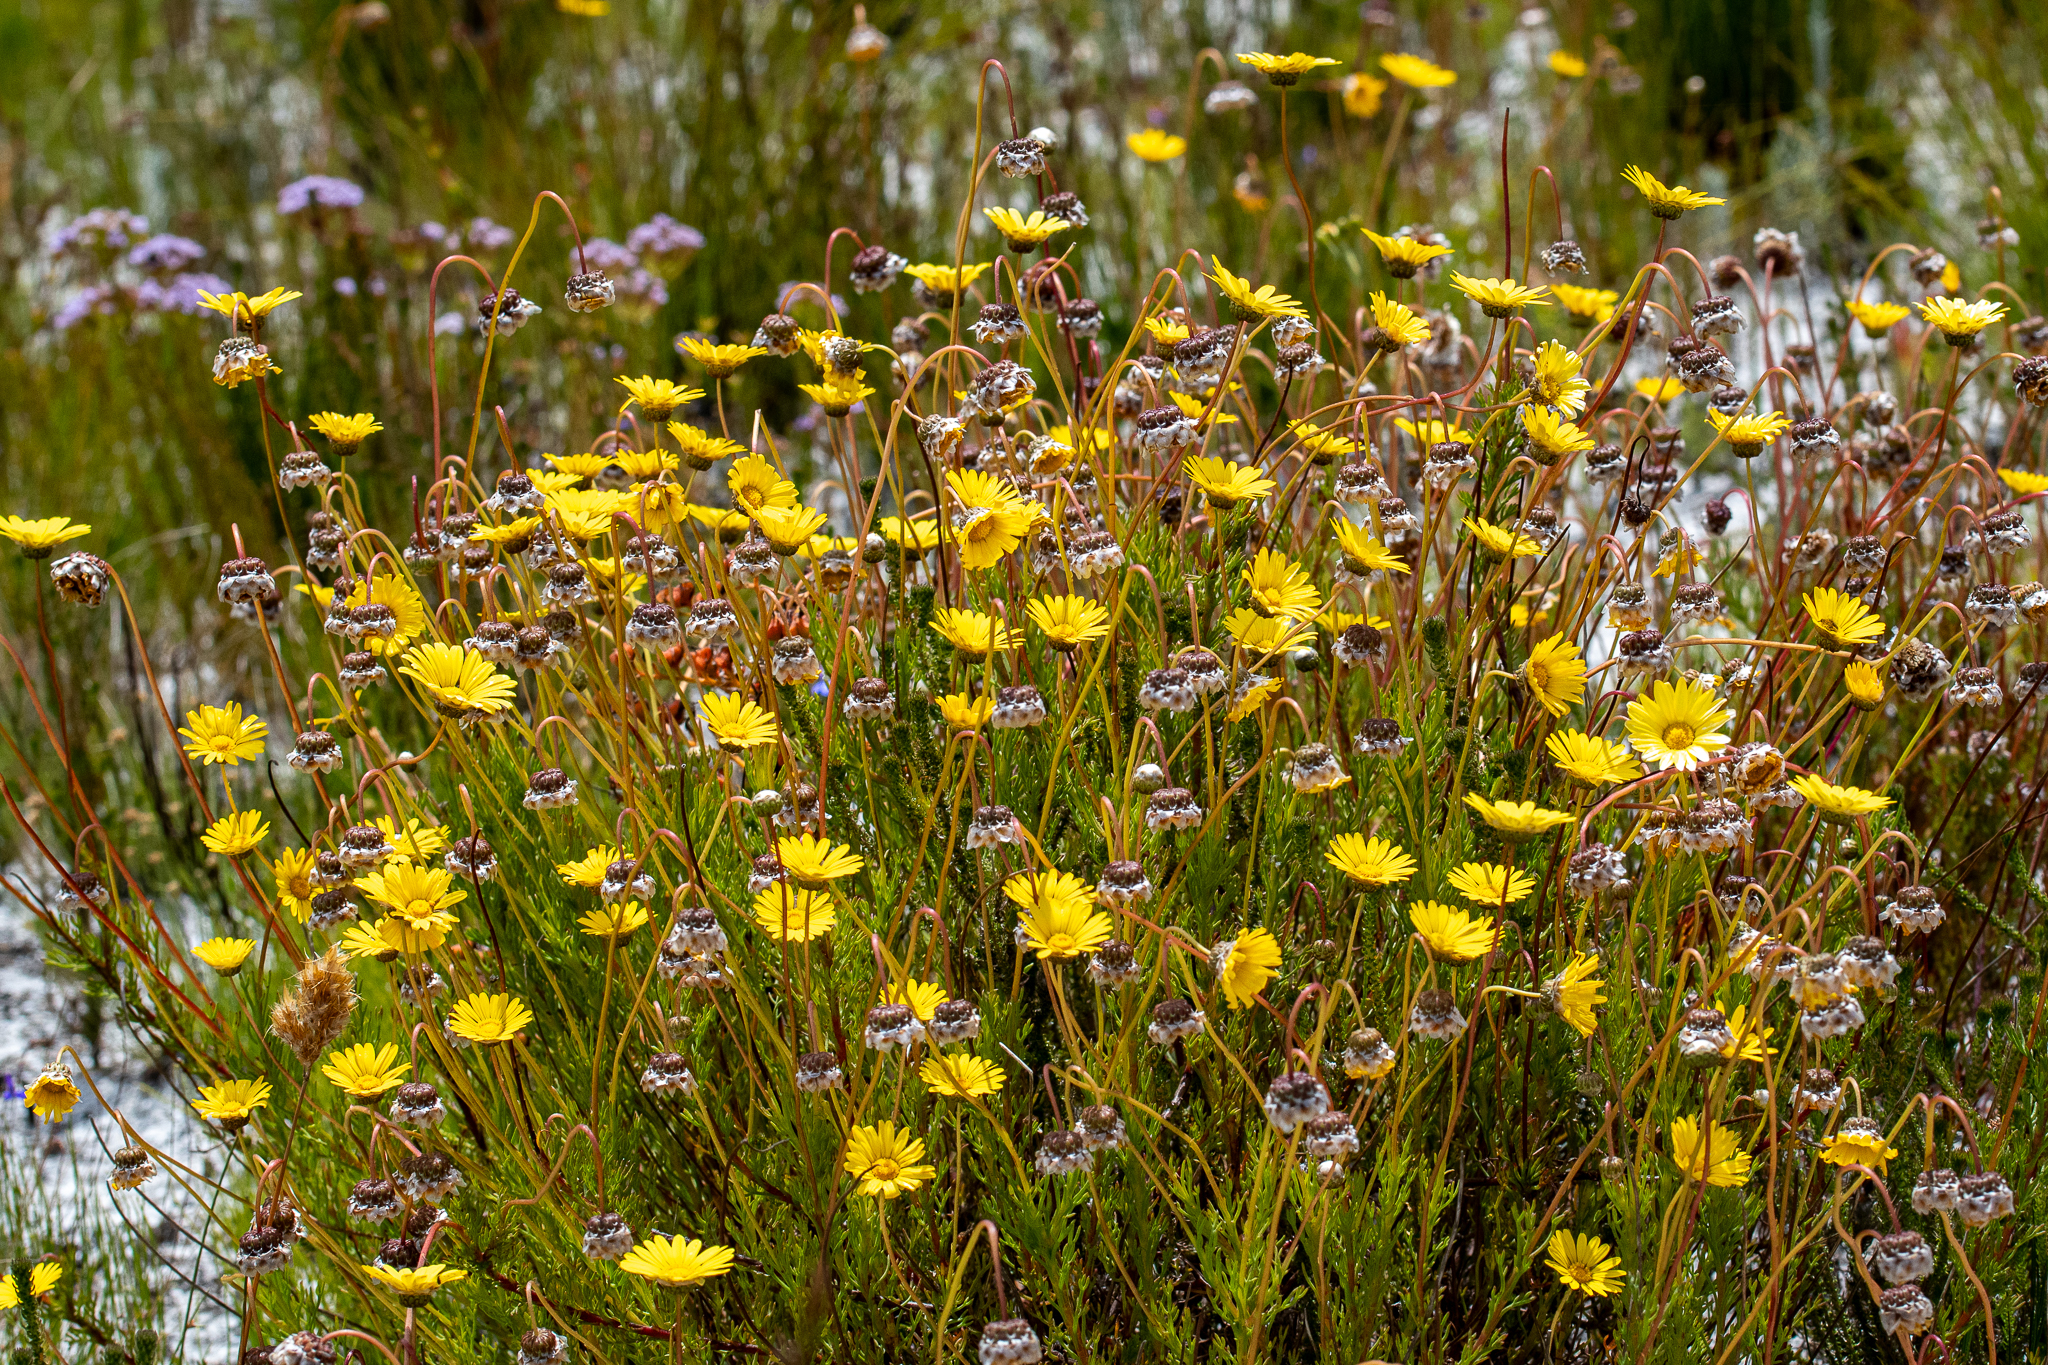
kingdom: Plantae
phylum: Tracheophyta
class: Magnoliopsida
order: Asterales
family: Asteraceae
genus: Ursinia
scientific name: Ursinia paleacea
